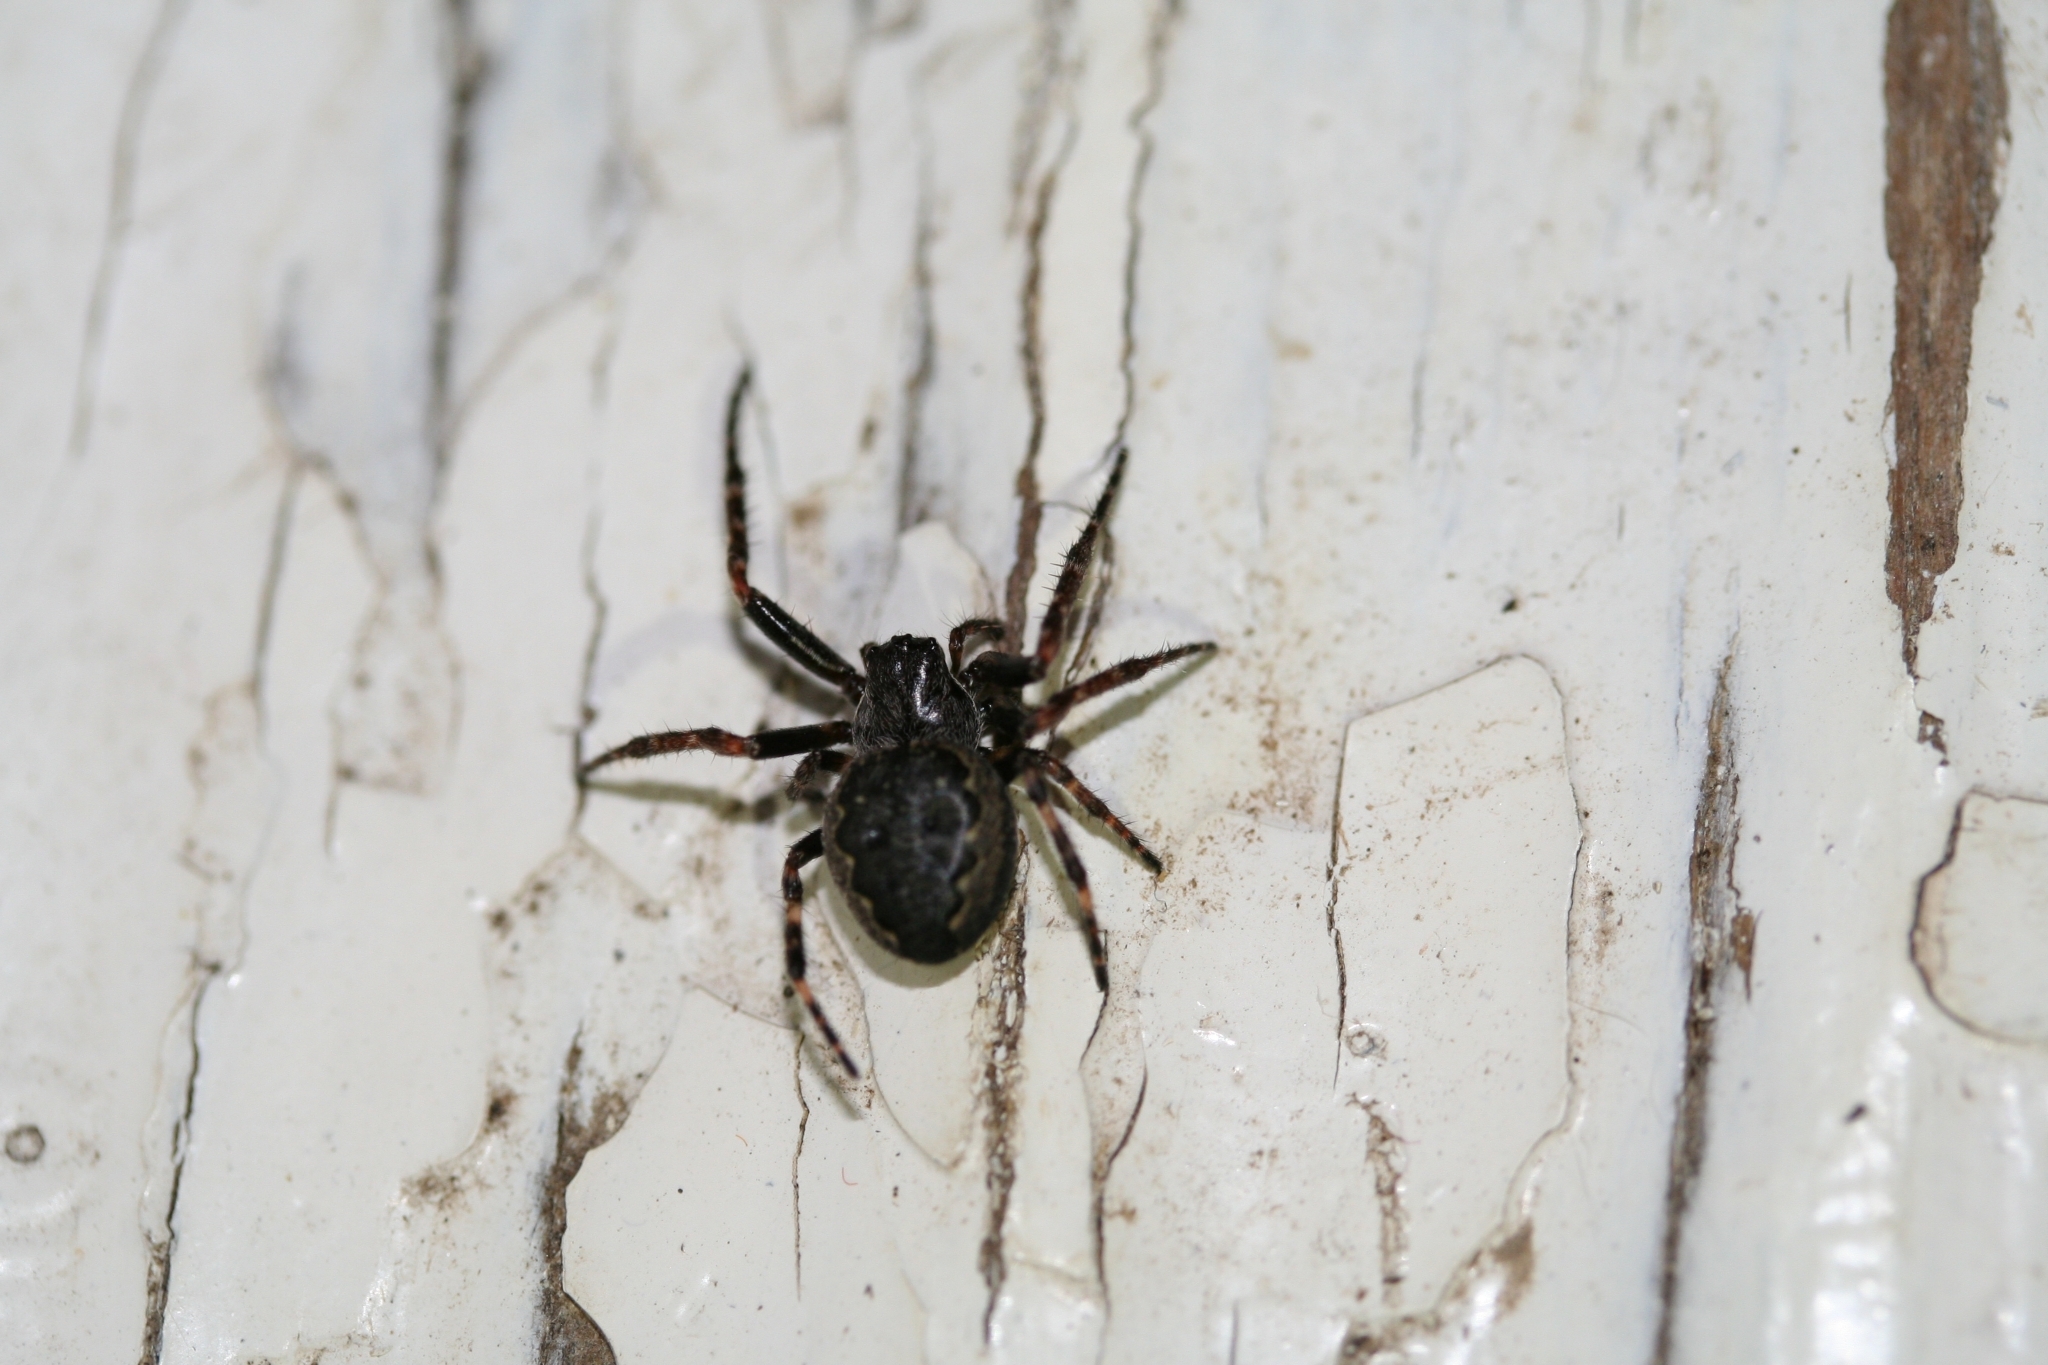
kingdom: Animalia
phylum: Arthropoda
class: Arachnida
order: Araneae
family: Araneidae
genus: Nuctenea
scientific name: Nuctenea umbratica
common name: Toad spider
